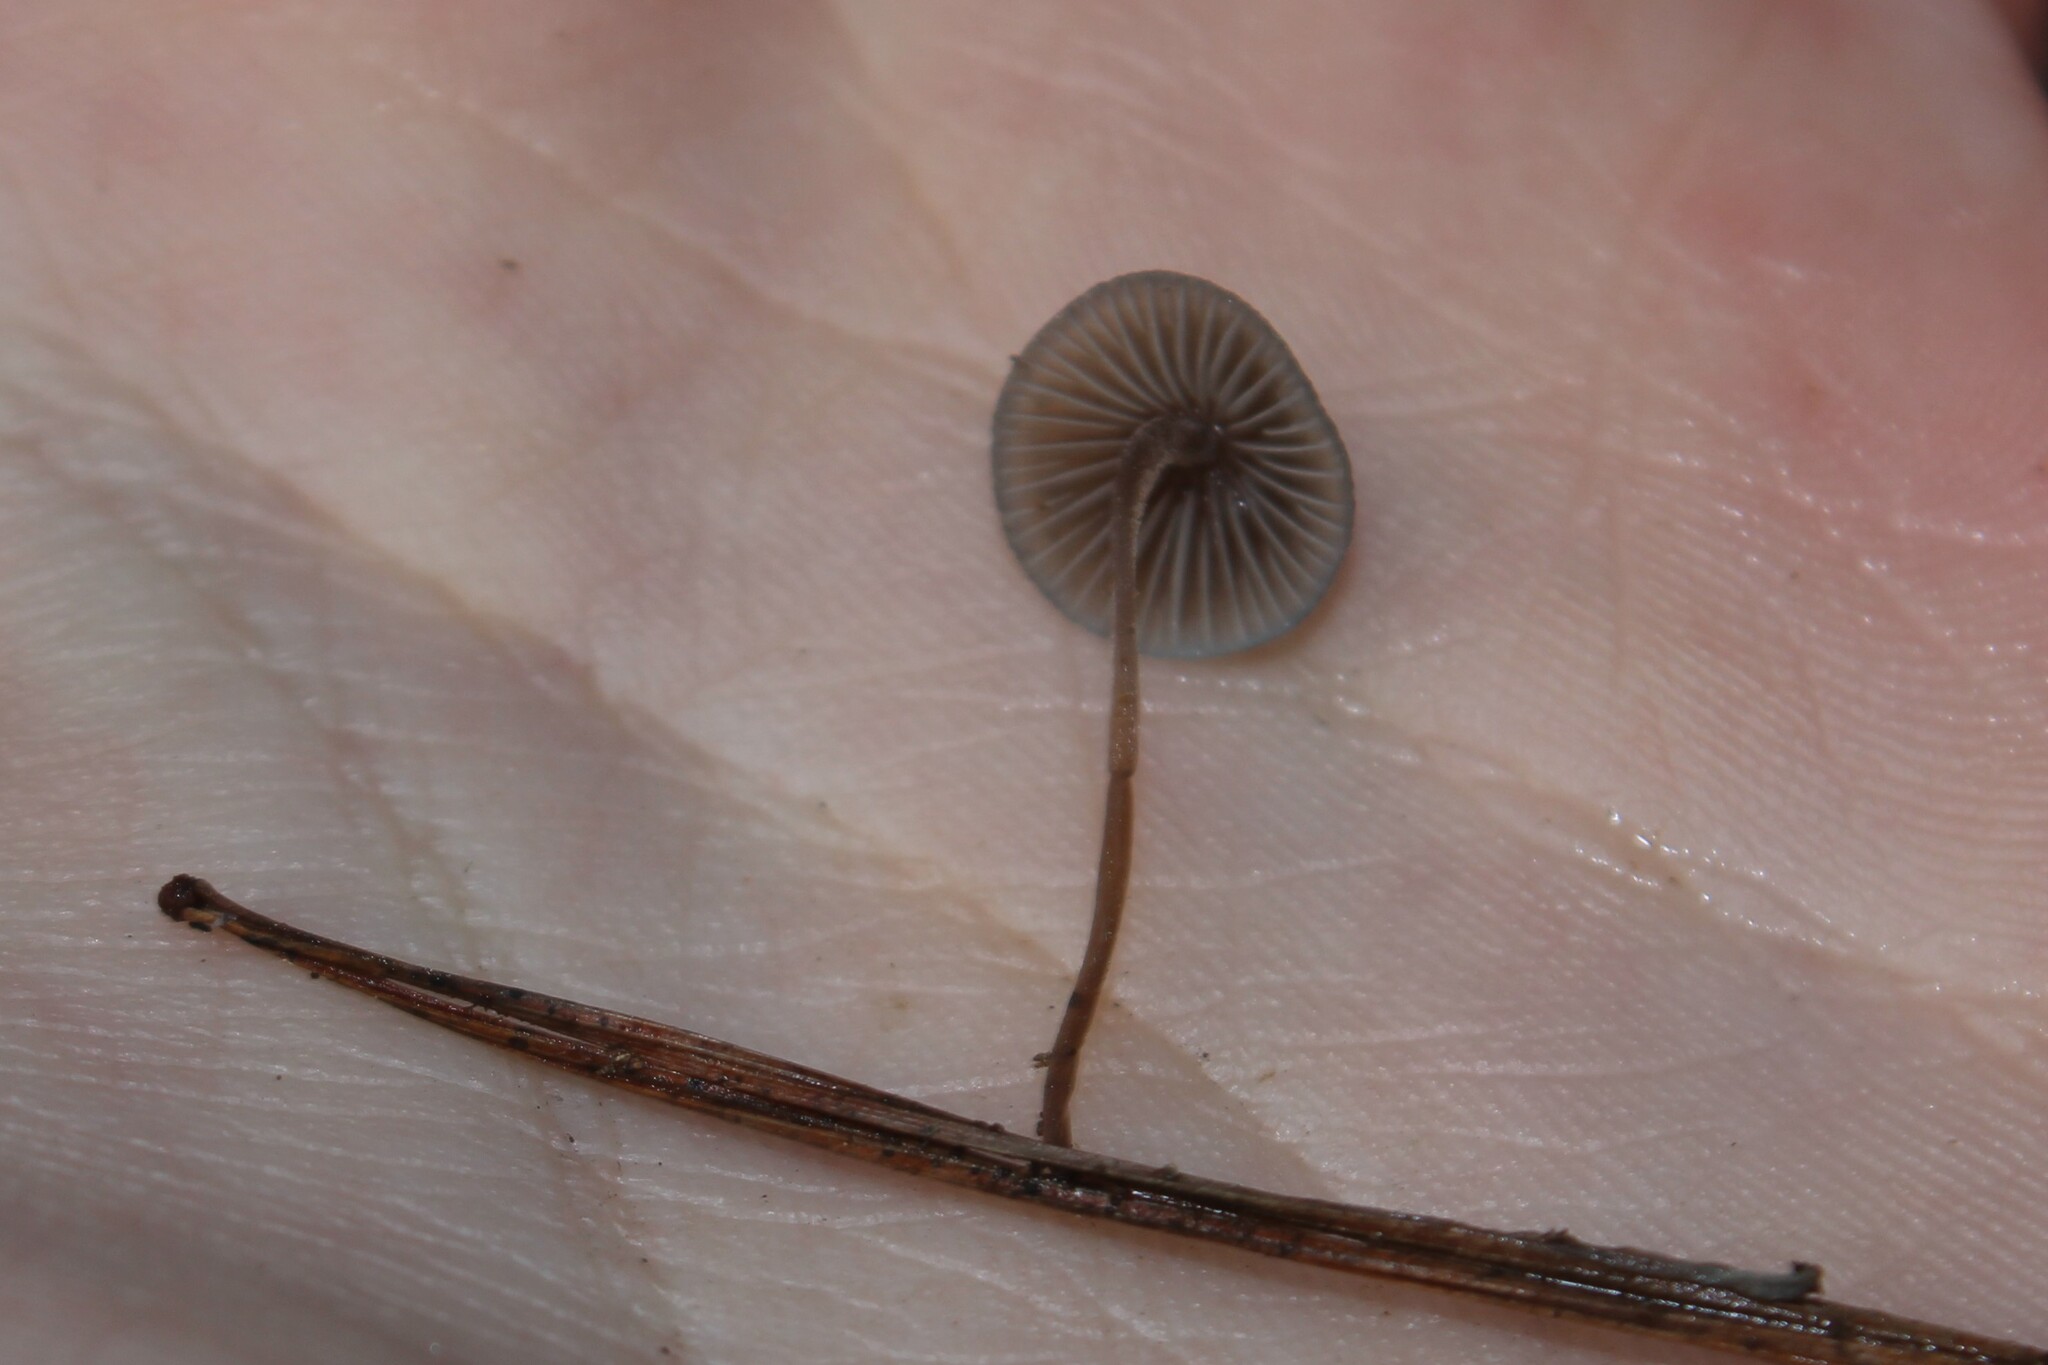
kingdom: Fungi
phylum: Basidiomycota
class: Agaricomycetes
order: Agaricales
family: Mycenaceae
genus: Mycena
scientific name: Mycena amicta
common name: Coldfoot bonnet
